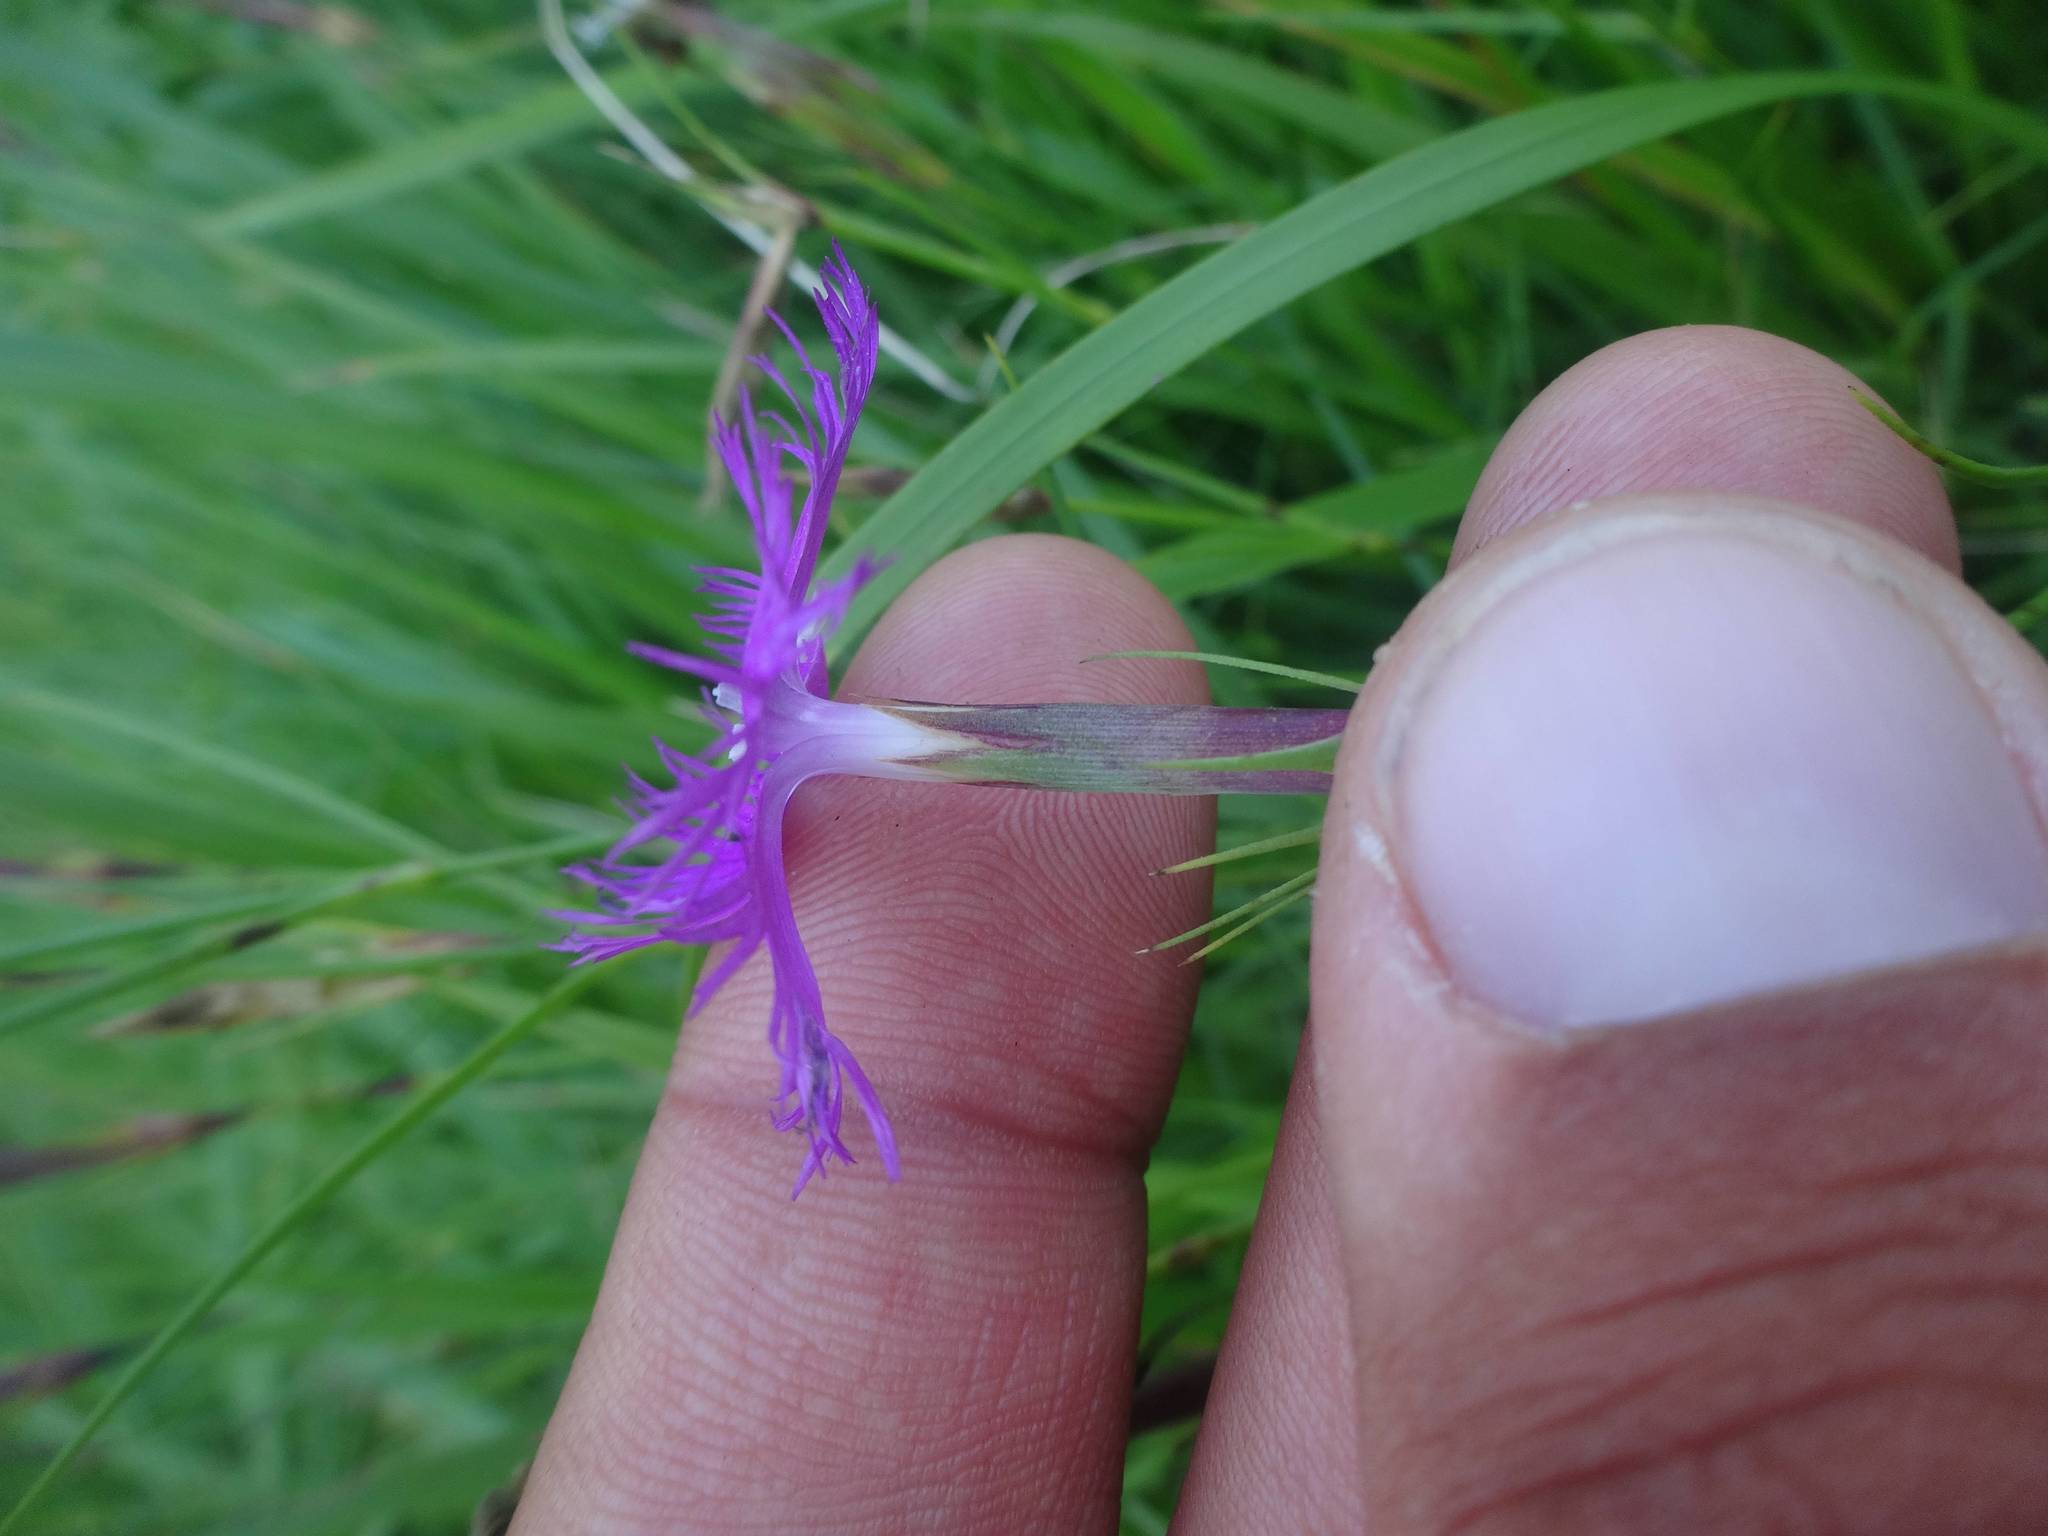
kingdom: Plantae
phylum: Tracheophyta
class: Magnoliopsida
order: Caryophyllales
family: Caryophyllaceae
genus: Dianthus
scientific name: Dianthus hyssopifolius
